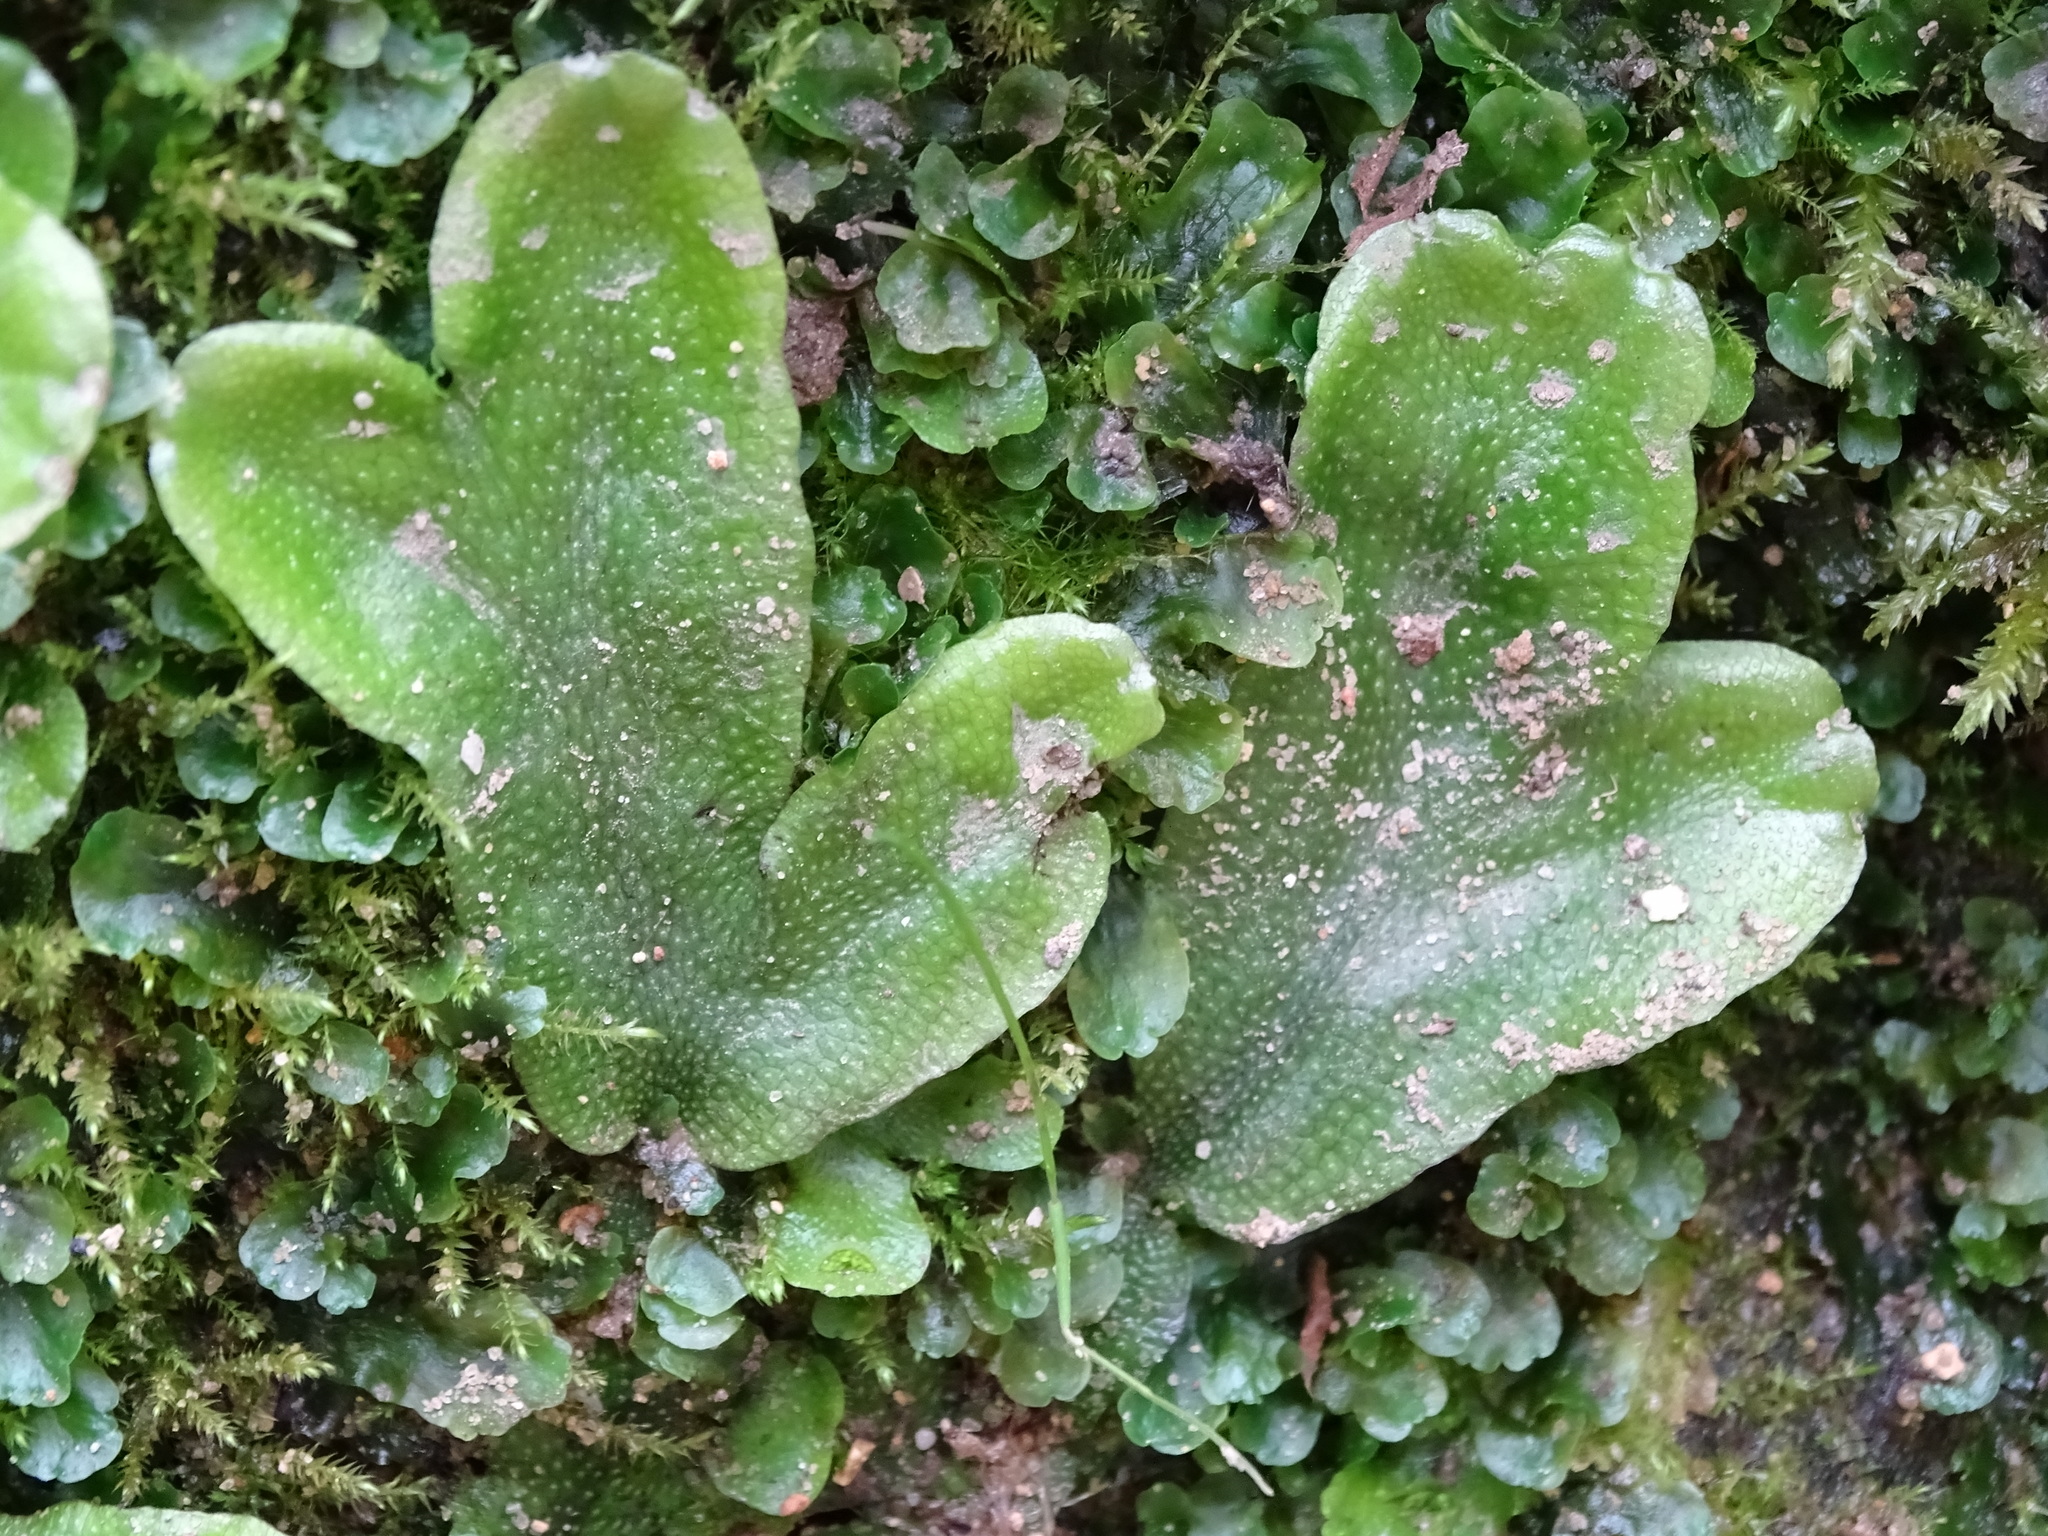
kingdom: Plantae
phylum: Marchantiophyta
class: Marchantiopsida
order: Marchantiales
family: Conocephalaceae
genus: Conocephalum
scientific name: Conocephalum conicum
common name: Great scented liverwort
